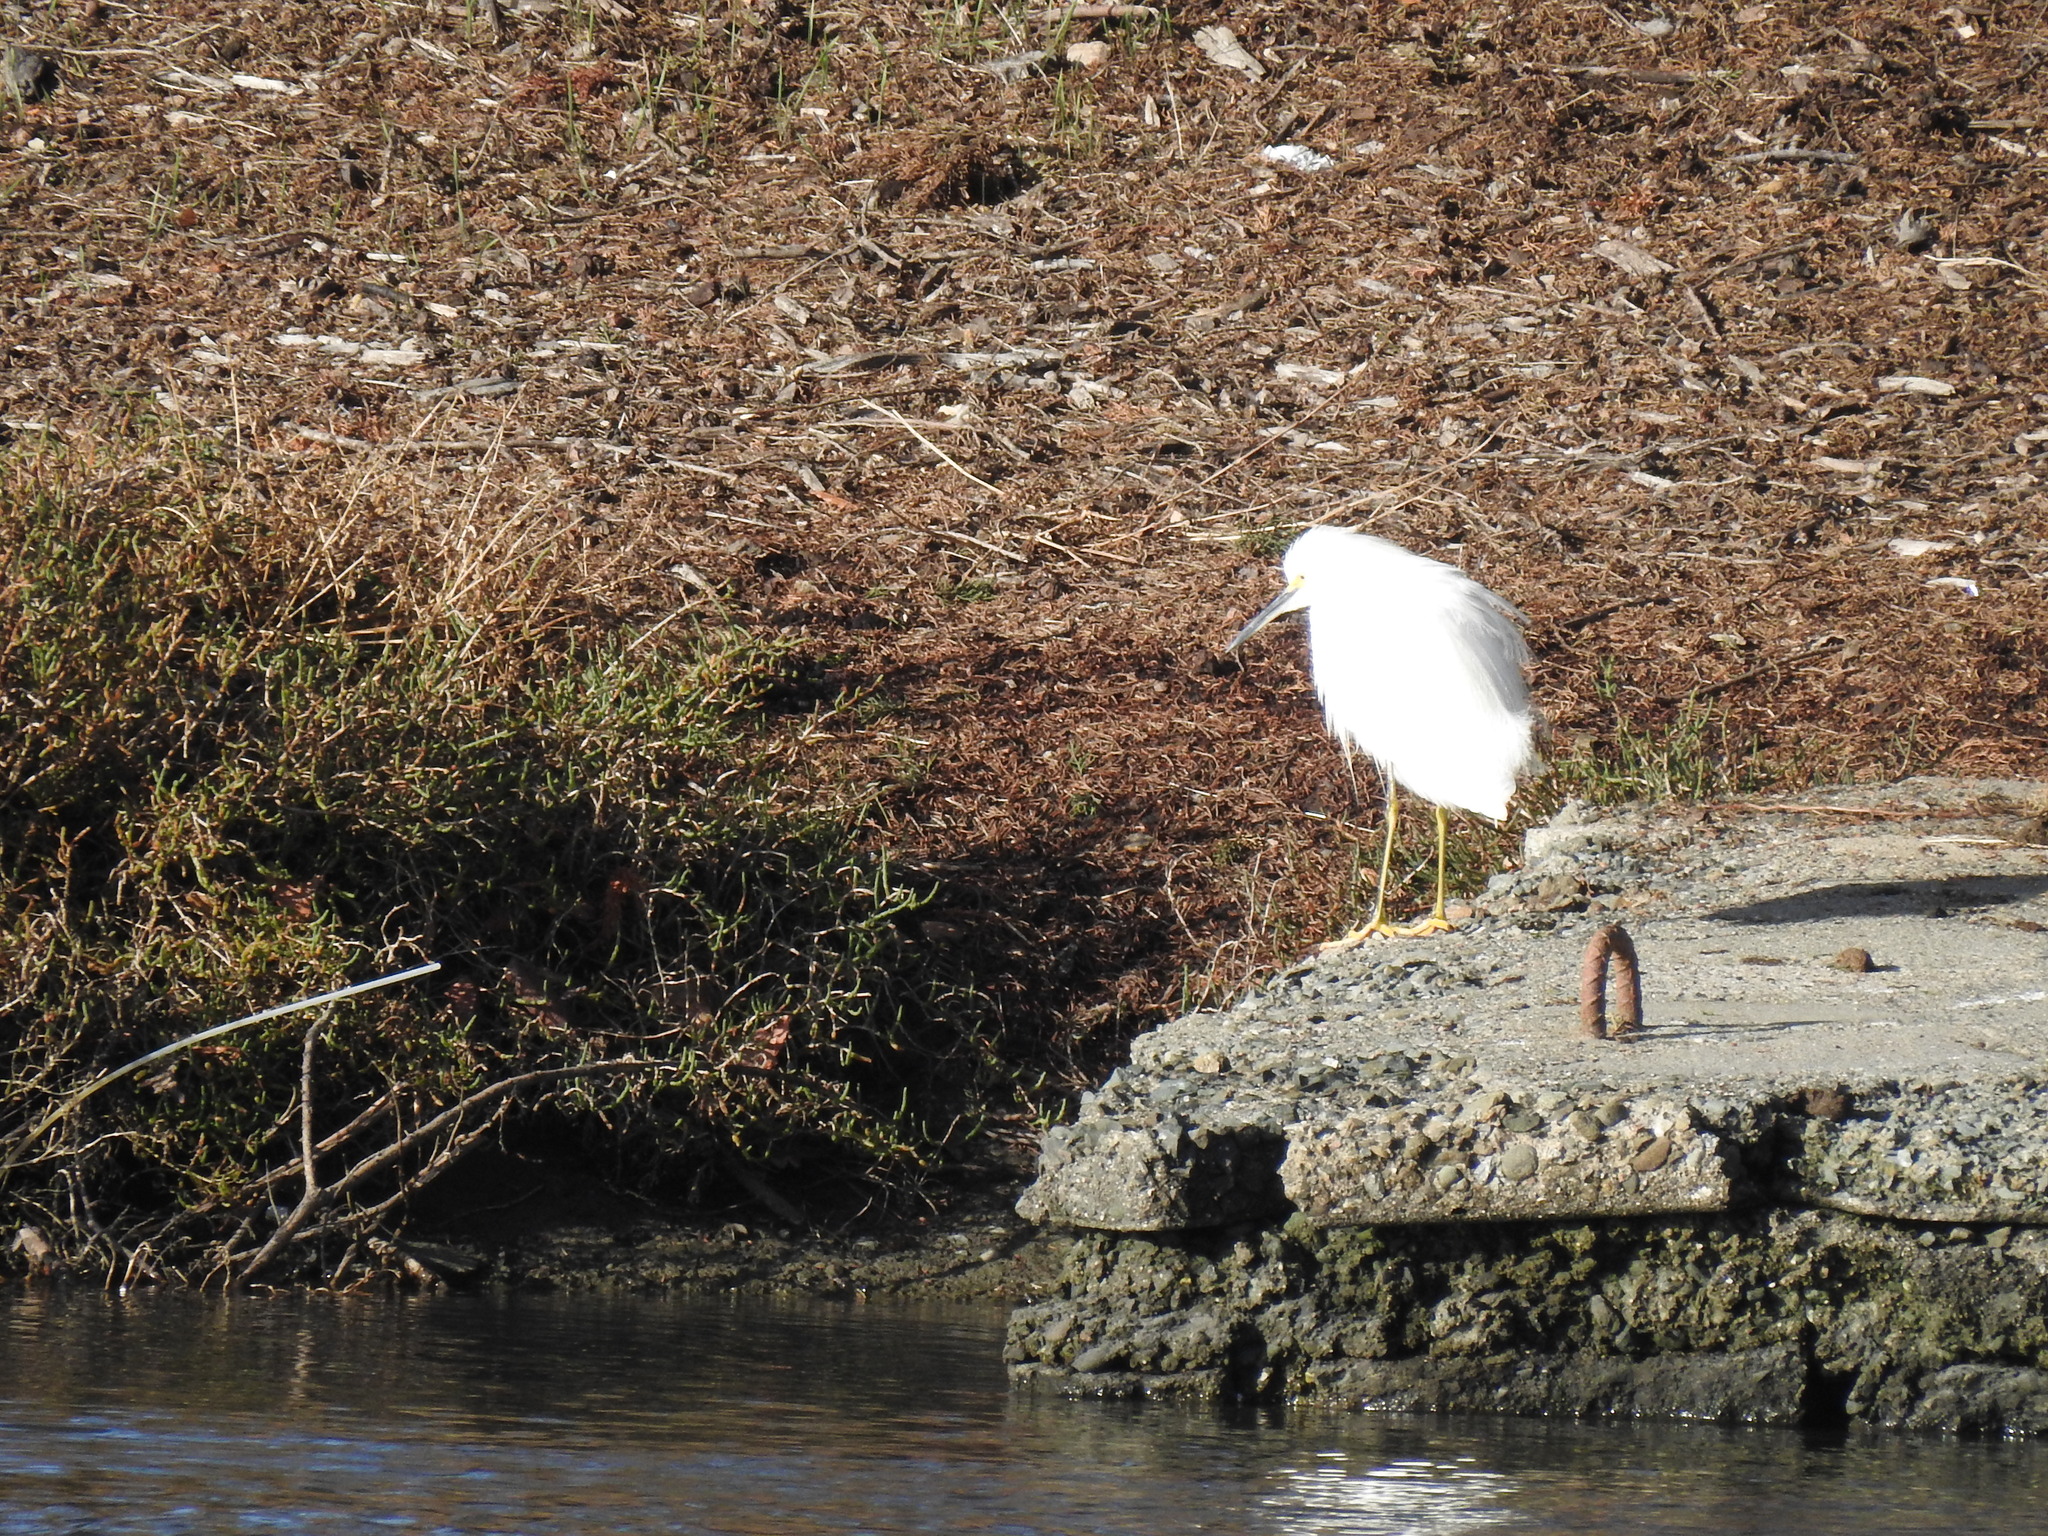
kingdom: Animalia
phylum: Chordata
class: Aves
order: Pelecaniformes
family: Ardeidae
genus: Egretta
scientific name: Egretta thula
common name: Snowy egret
